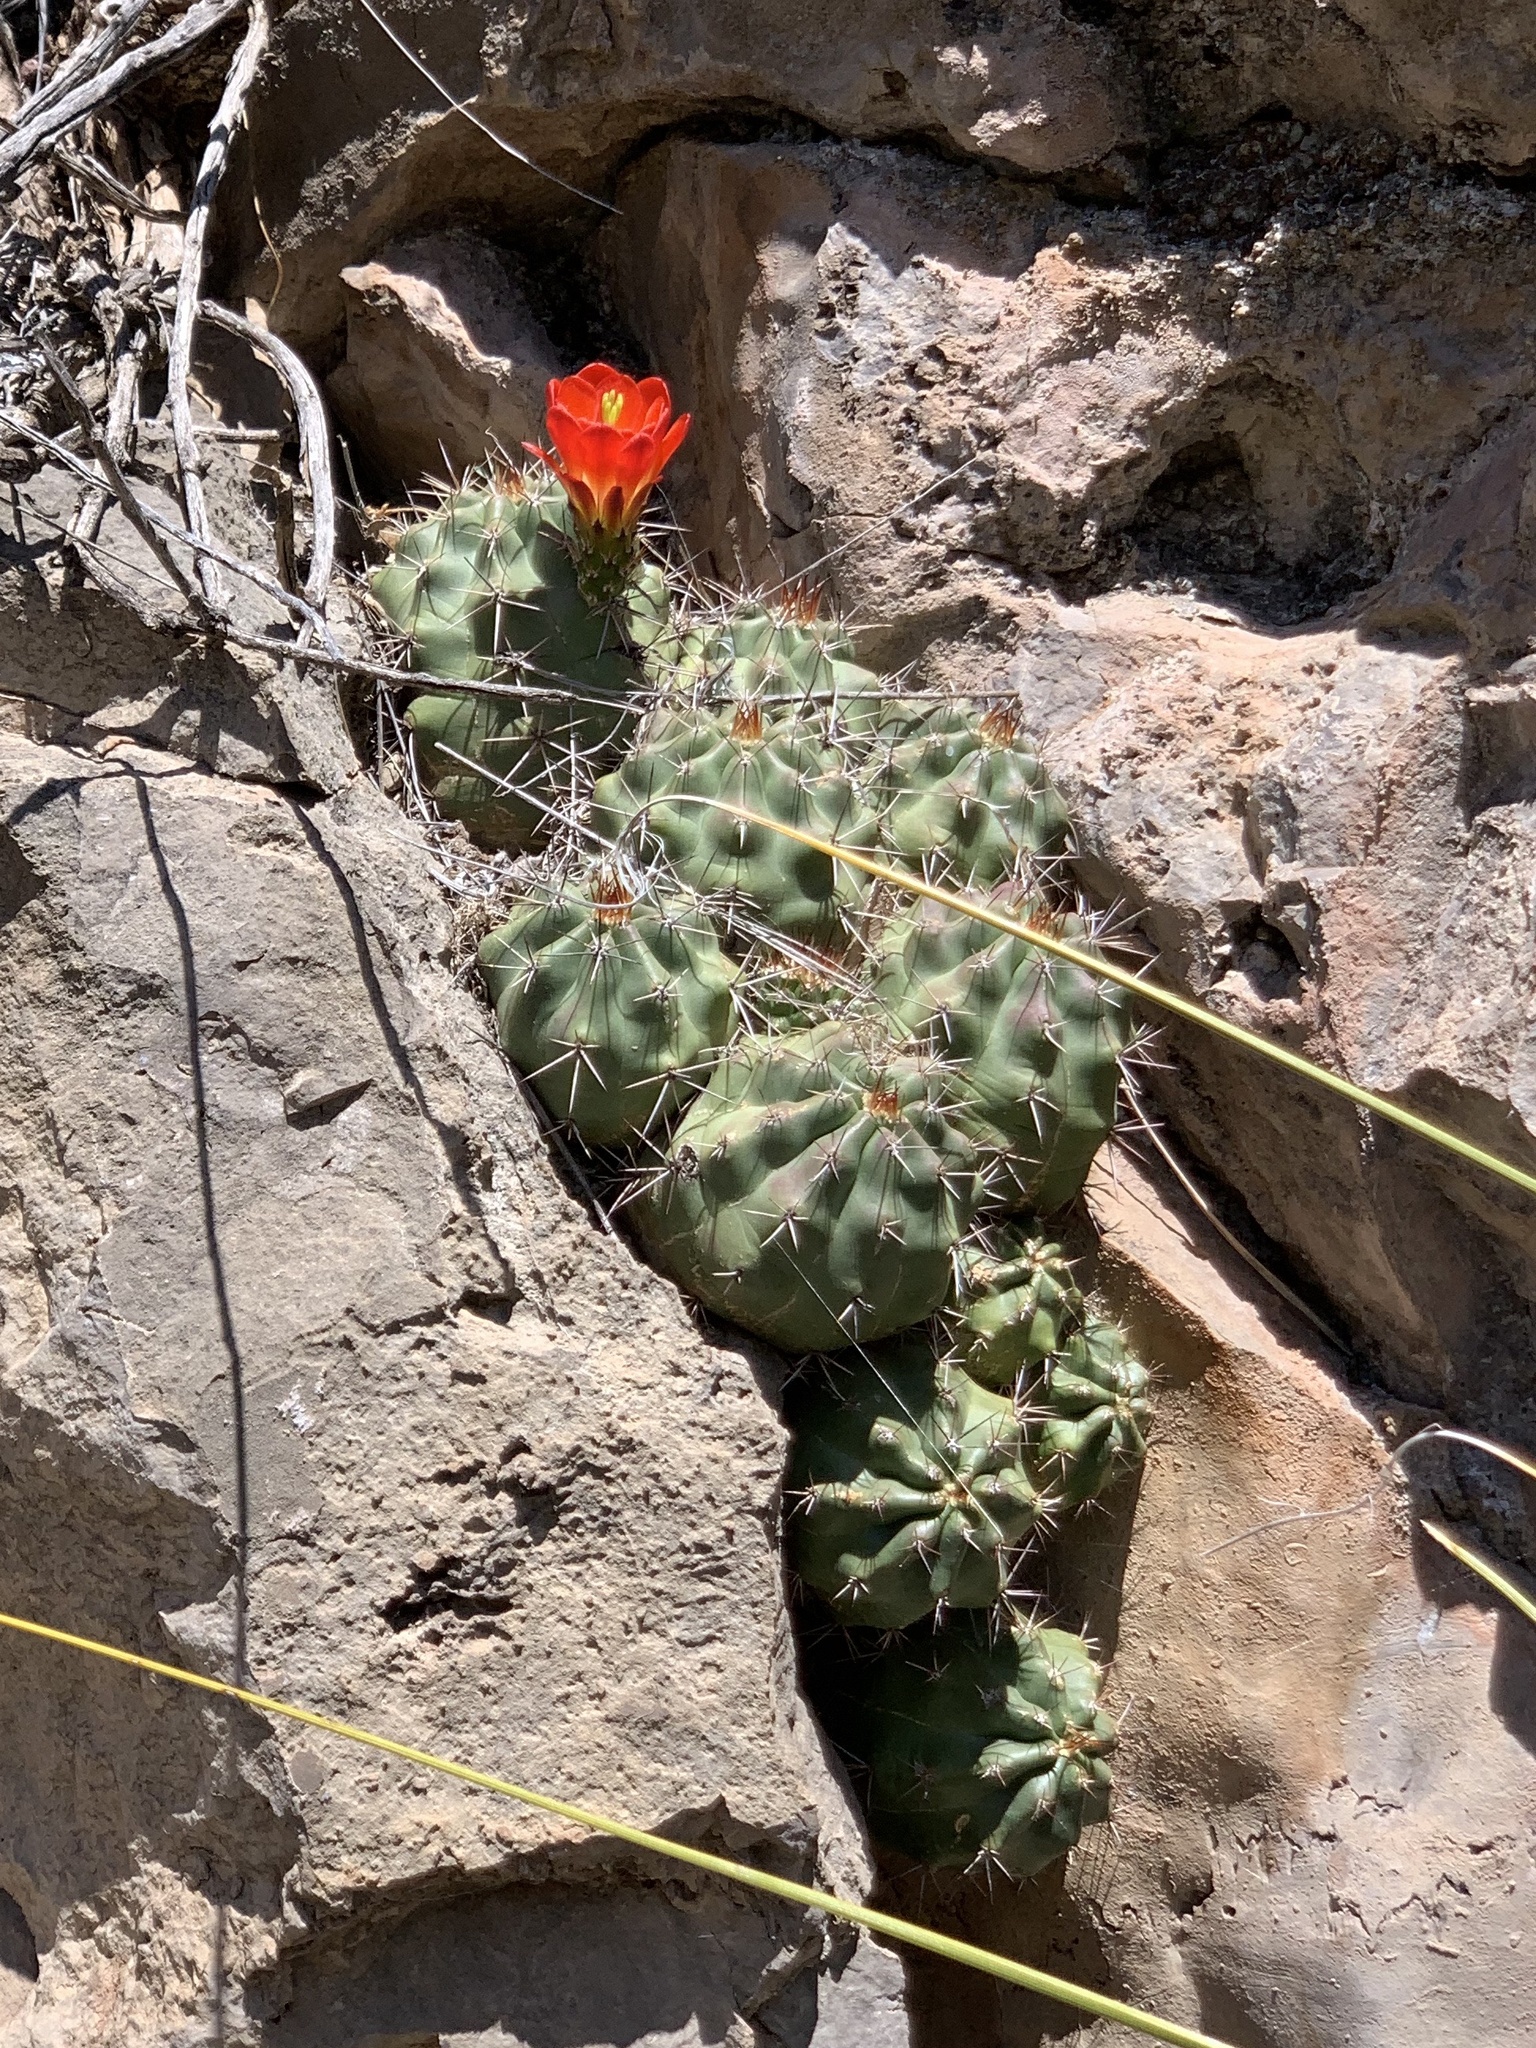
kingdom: Plantae
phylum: Tracheophyta
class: Magnoliopsida
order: Caryophyllales
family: Cactaceae
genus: Echinocereus
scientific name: Echinocereus coccineus
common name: Scarlet hedgehog cactus
